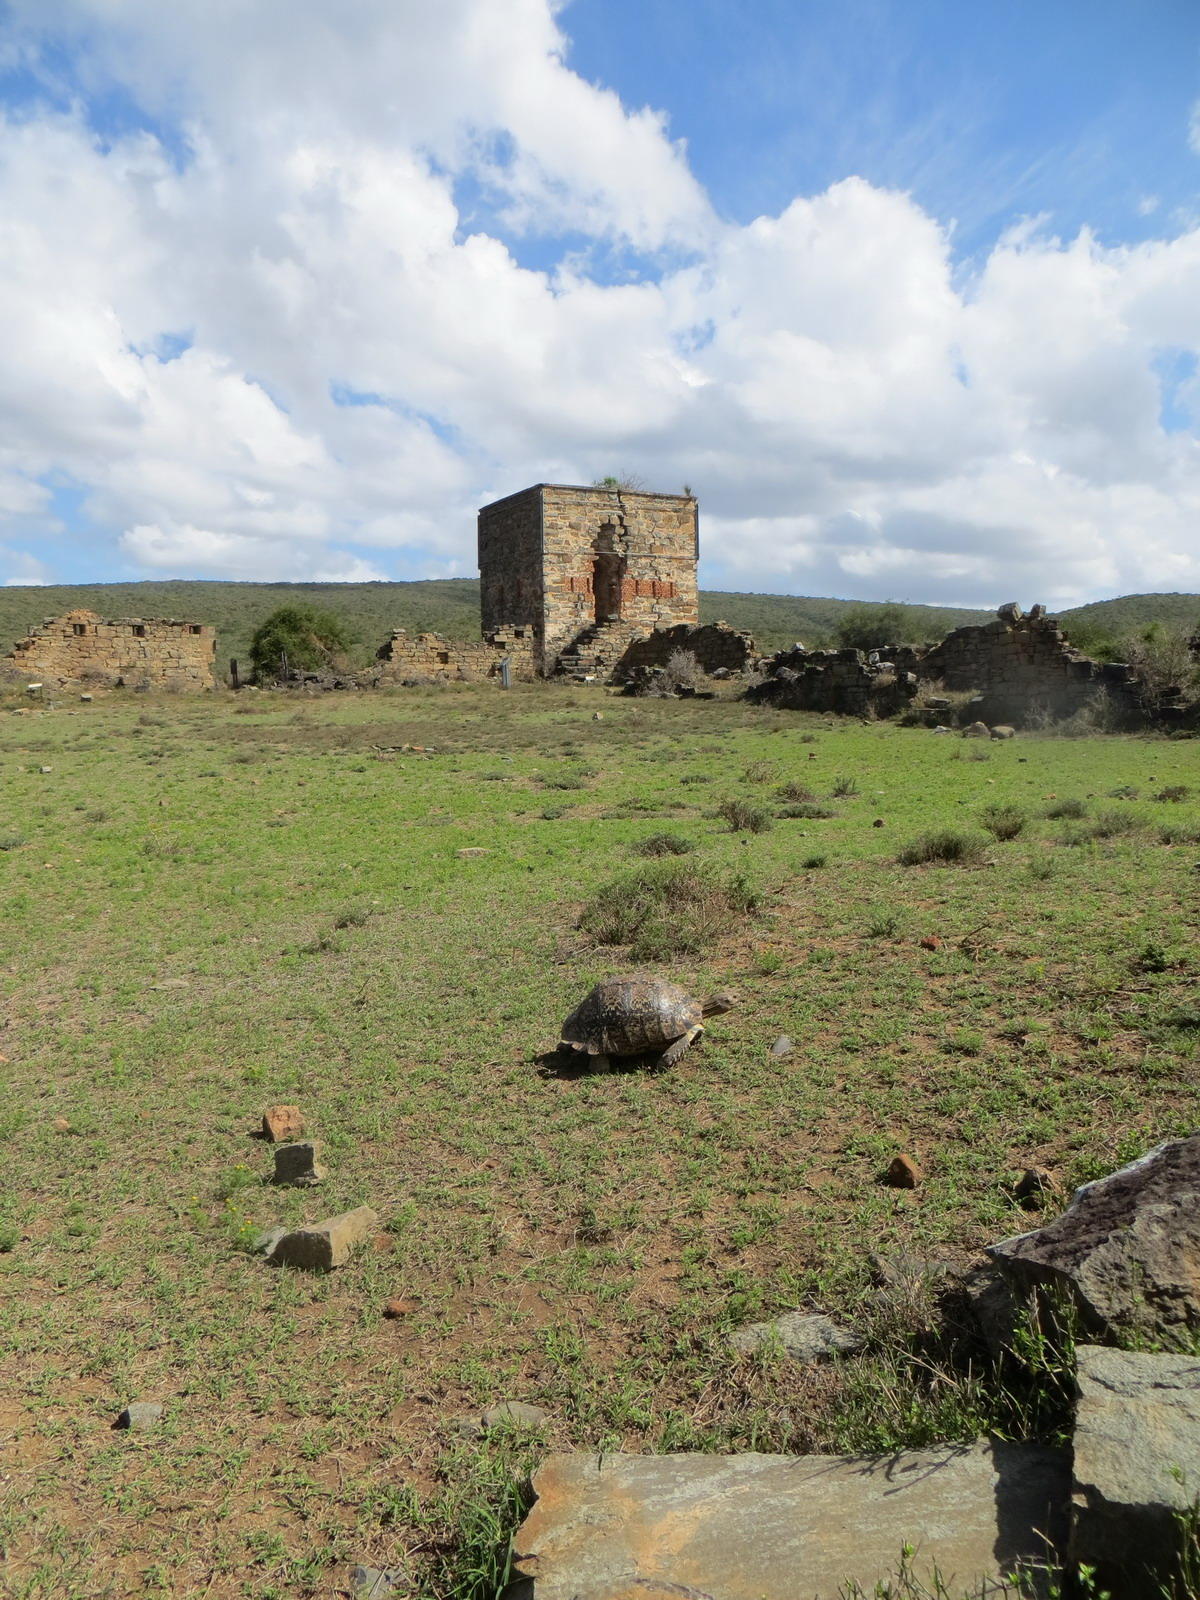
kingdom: Animalia
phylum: Chordata
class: Testudines
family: Testudinidae
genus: Stigmochelys
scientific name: Stigmochelys pardalis
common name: Leopard tortoise
